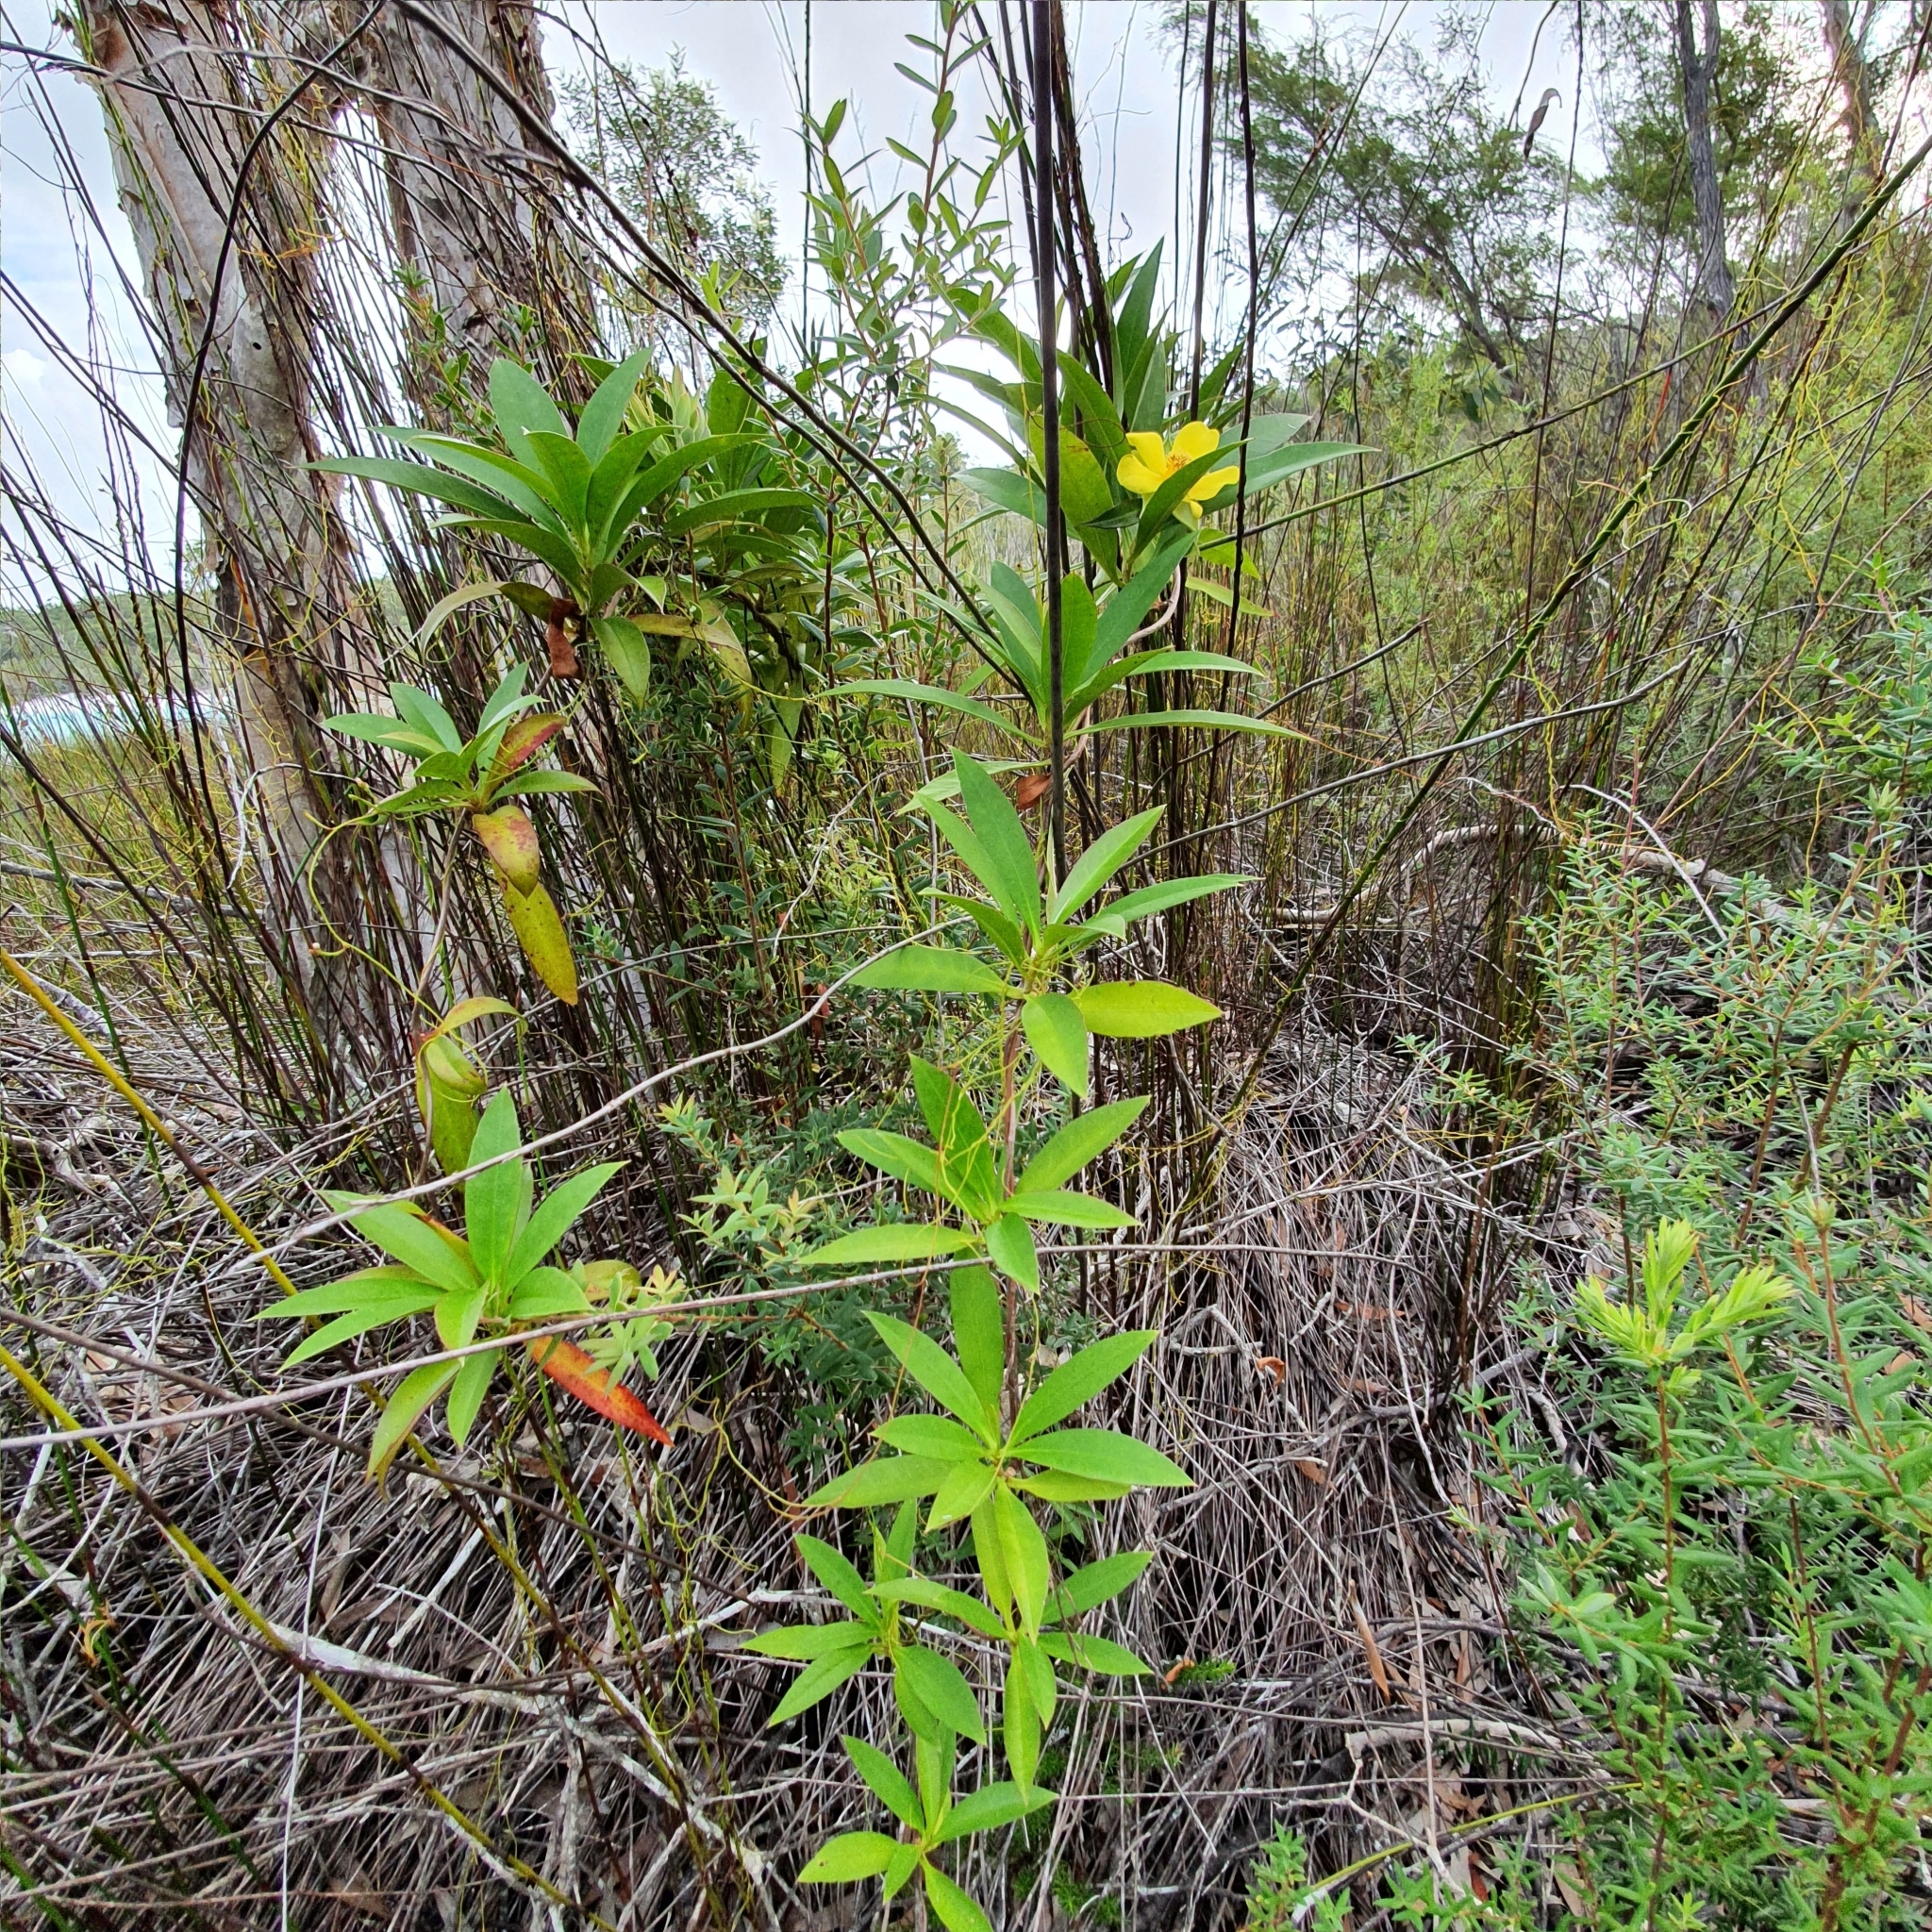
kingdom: Plantae
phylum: Tracheophyta
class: Magnoliopsida
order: Dilleniales
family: Dilleniaceae
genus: Hibbertia
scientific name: Hibbertia scandens
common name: Climbing guinea-flower
